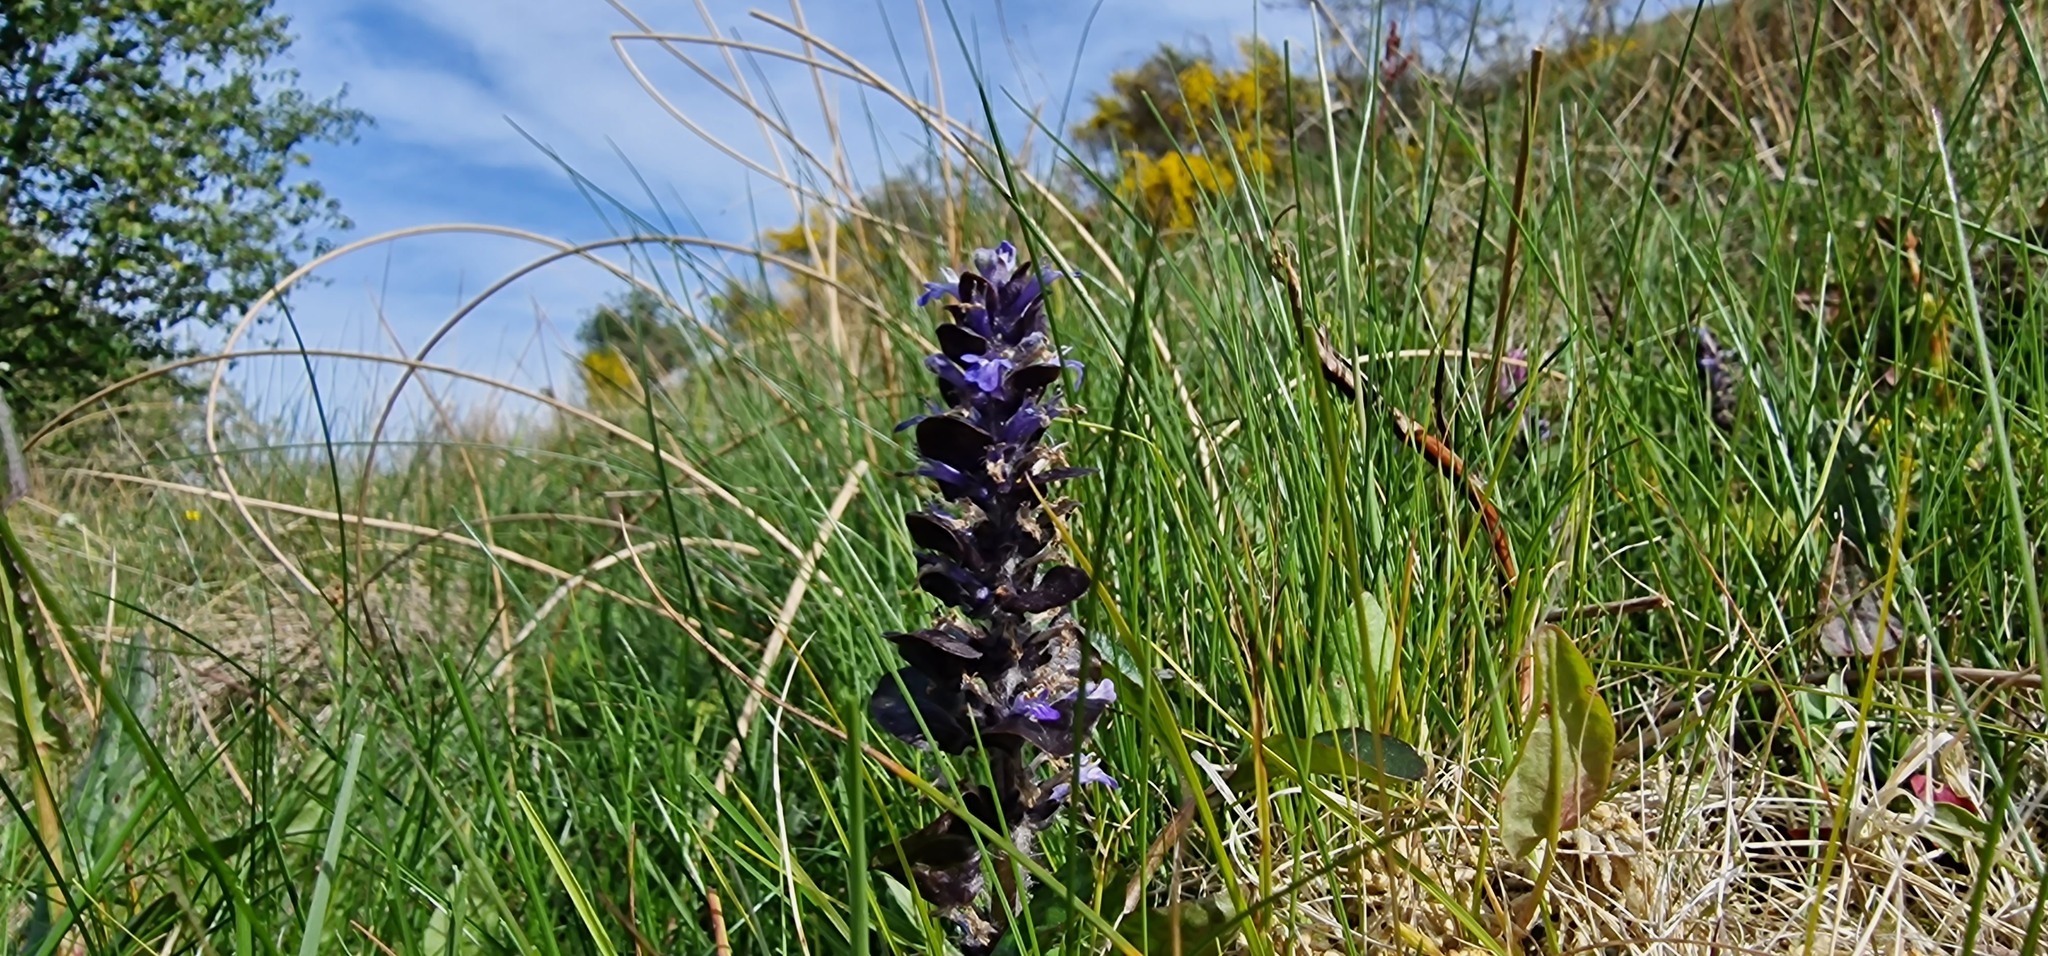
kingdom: Plantae
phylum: Tracheophyta
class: Magnoliopsida
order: Lamiales
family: Lamiaceae
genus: Ajuga
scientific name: Ajuga reptans
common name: Bugle
